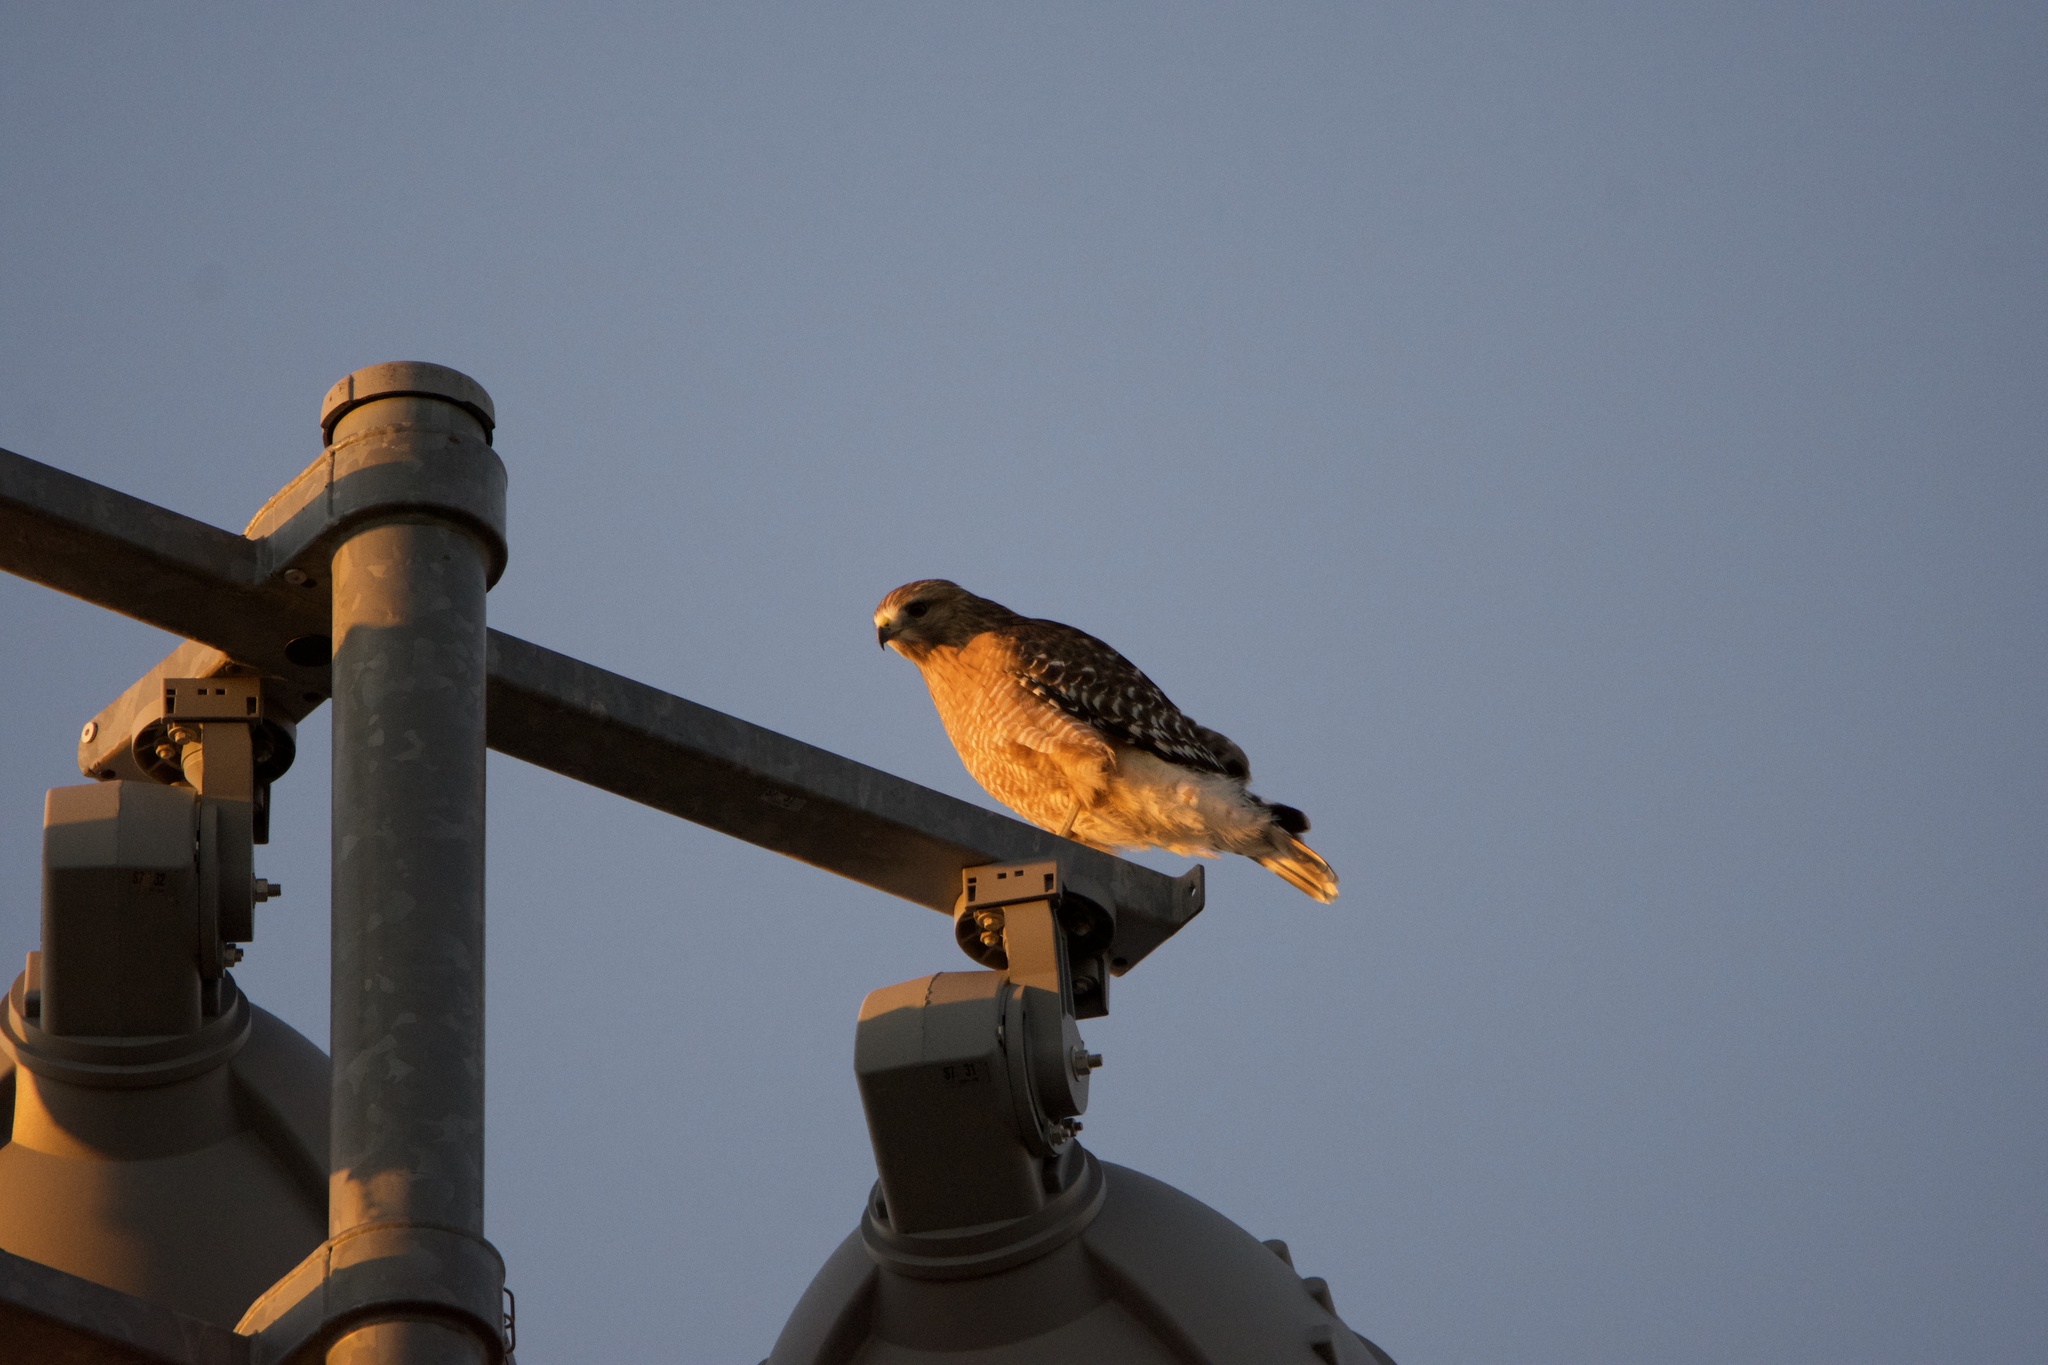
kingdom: Animalia
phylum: Chordata
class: Aves
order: Accipitriformes
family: Accipitridae
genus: Buteo
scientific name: Buteo lineatus
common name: Red-shouldered hawk
